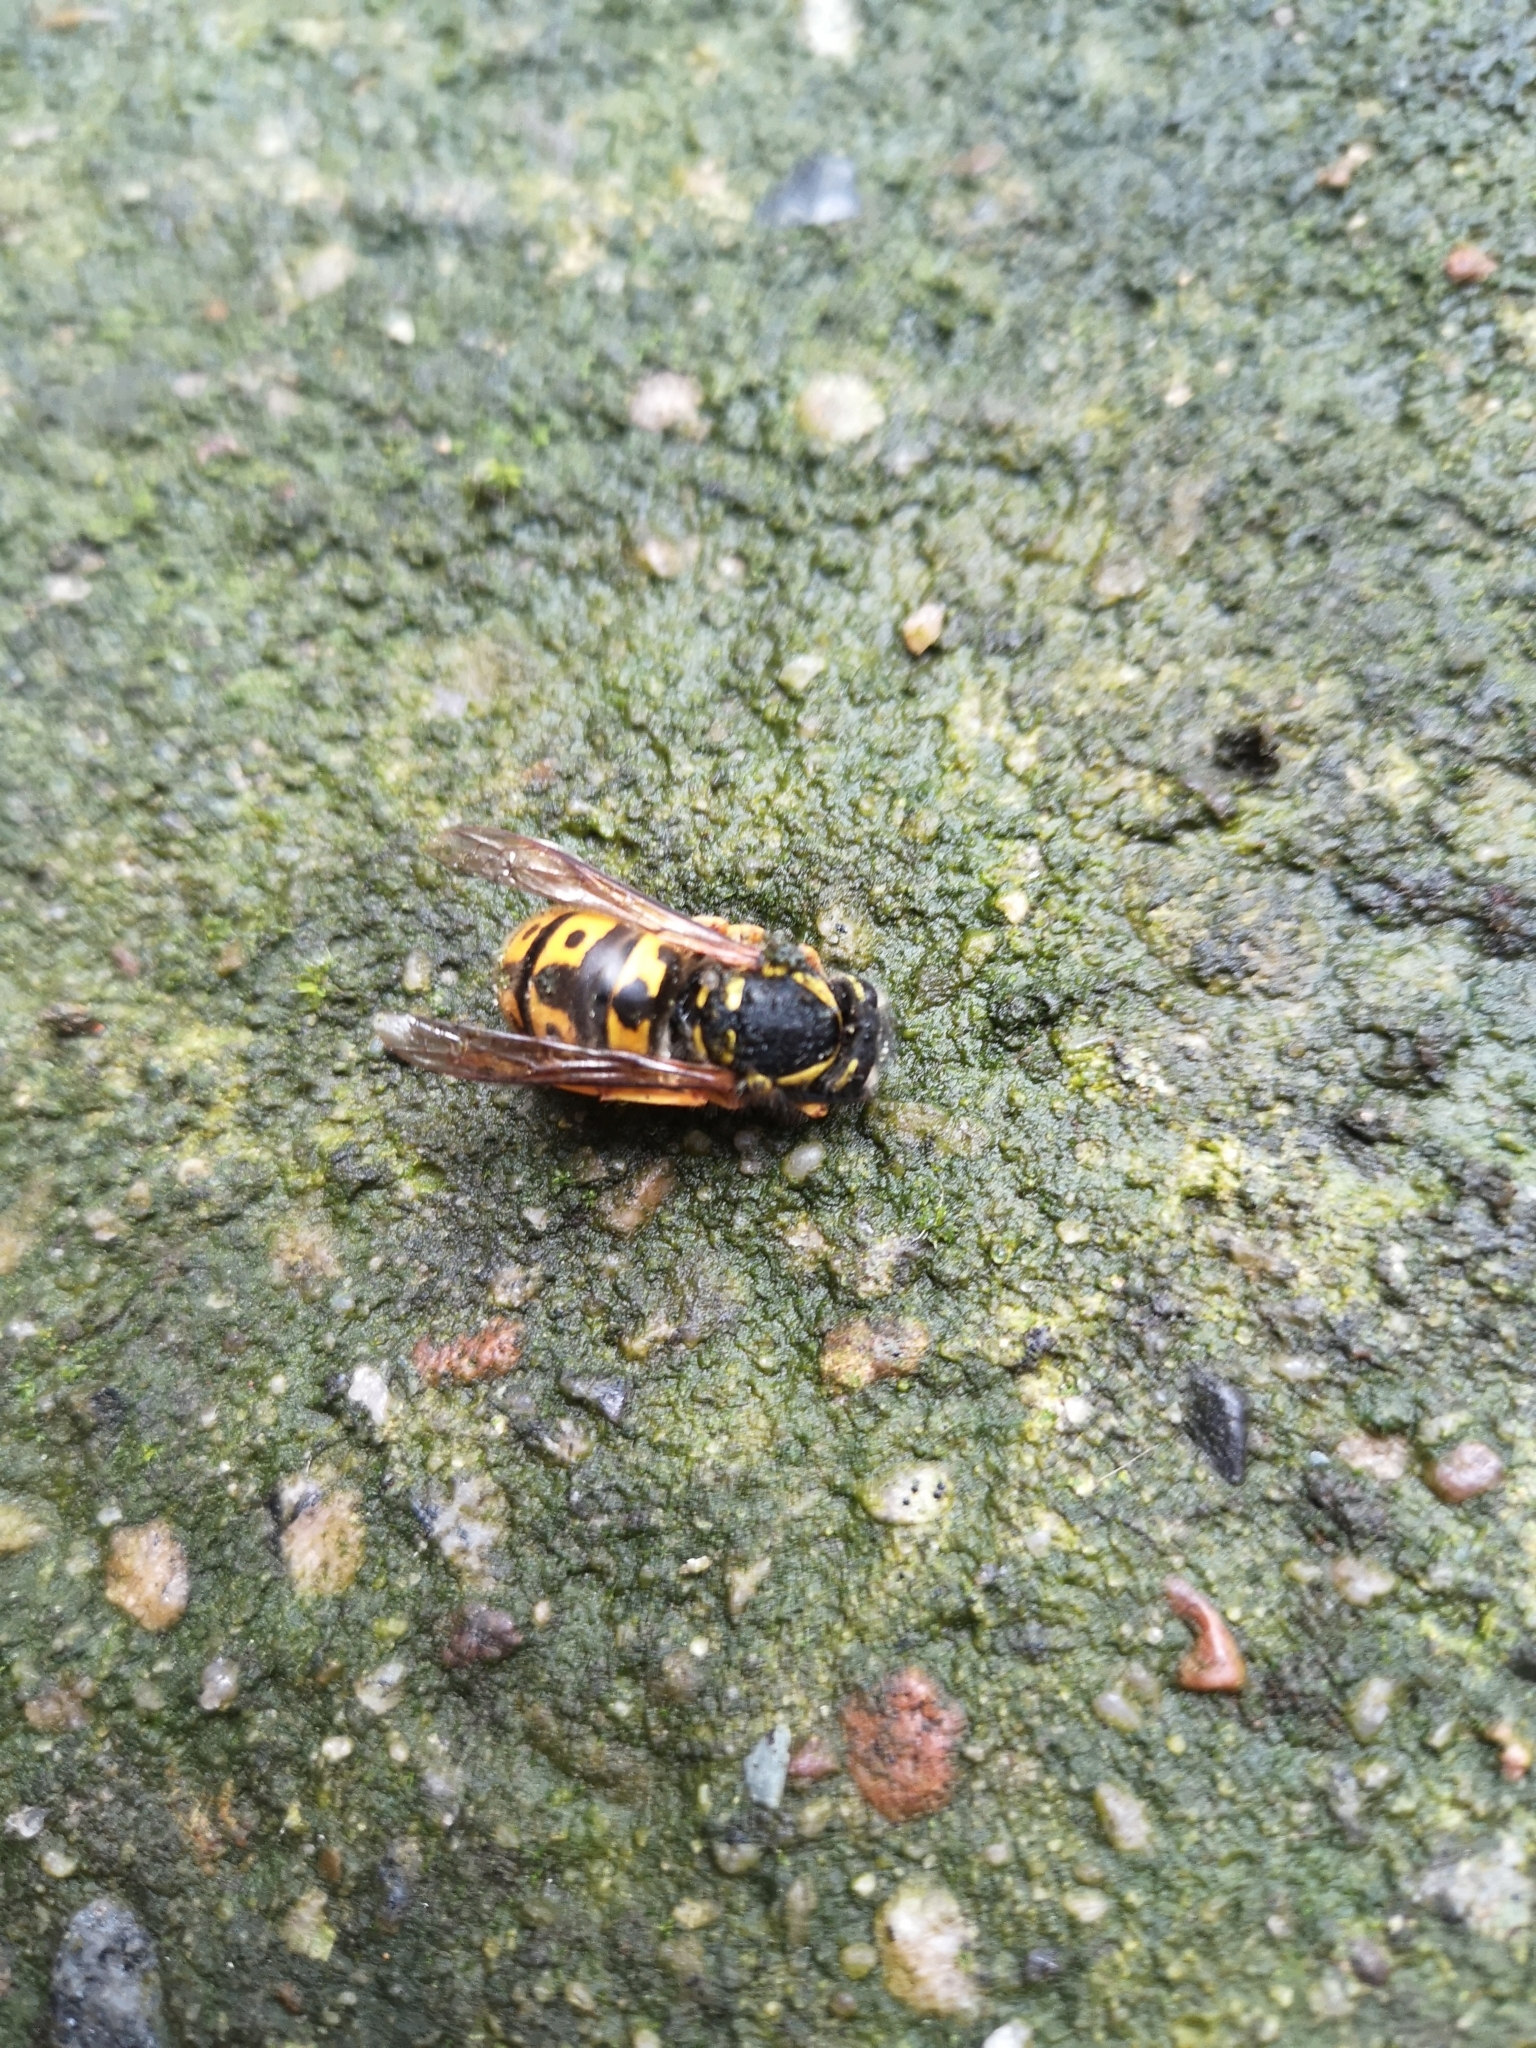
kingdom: Animalia
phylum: Arthropoda
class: Insecta
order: Hymenoptera
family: Vespidae
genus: Vespula
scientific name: Vespula germanica
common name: German wasp
